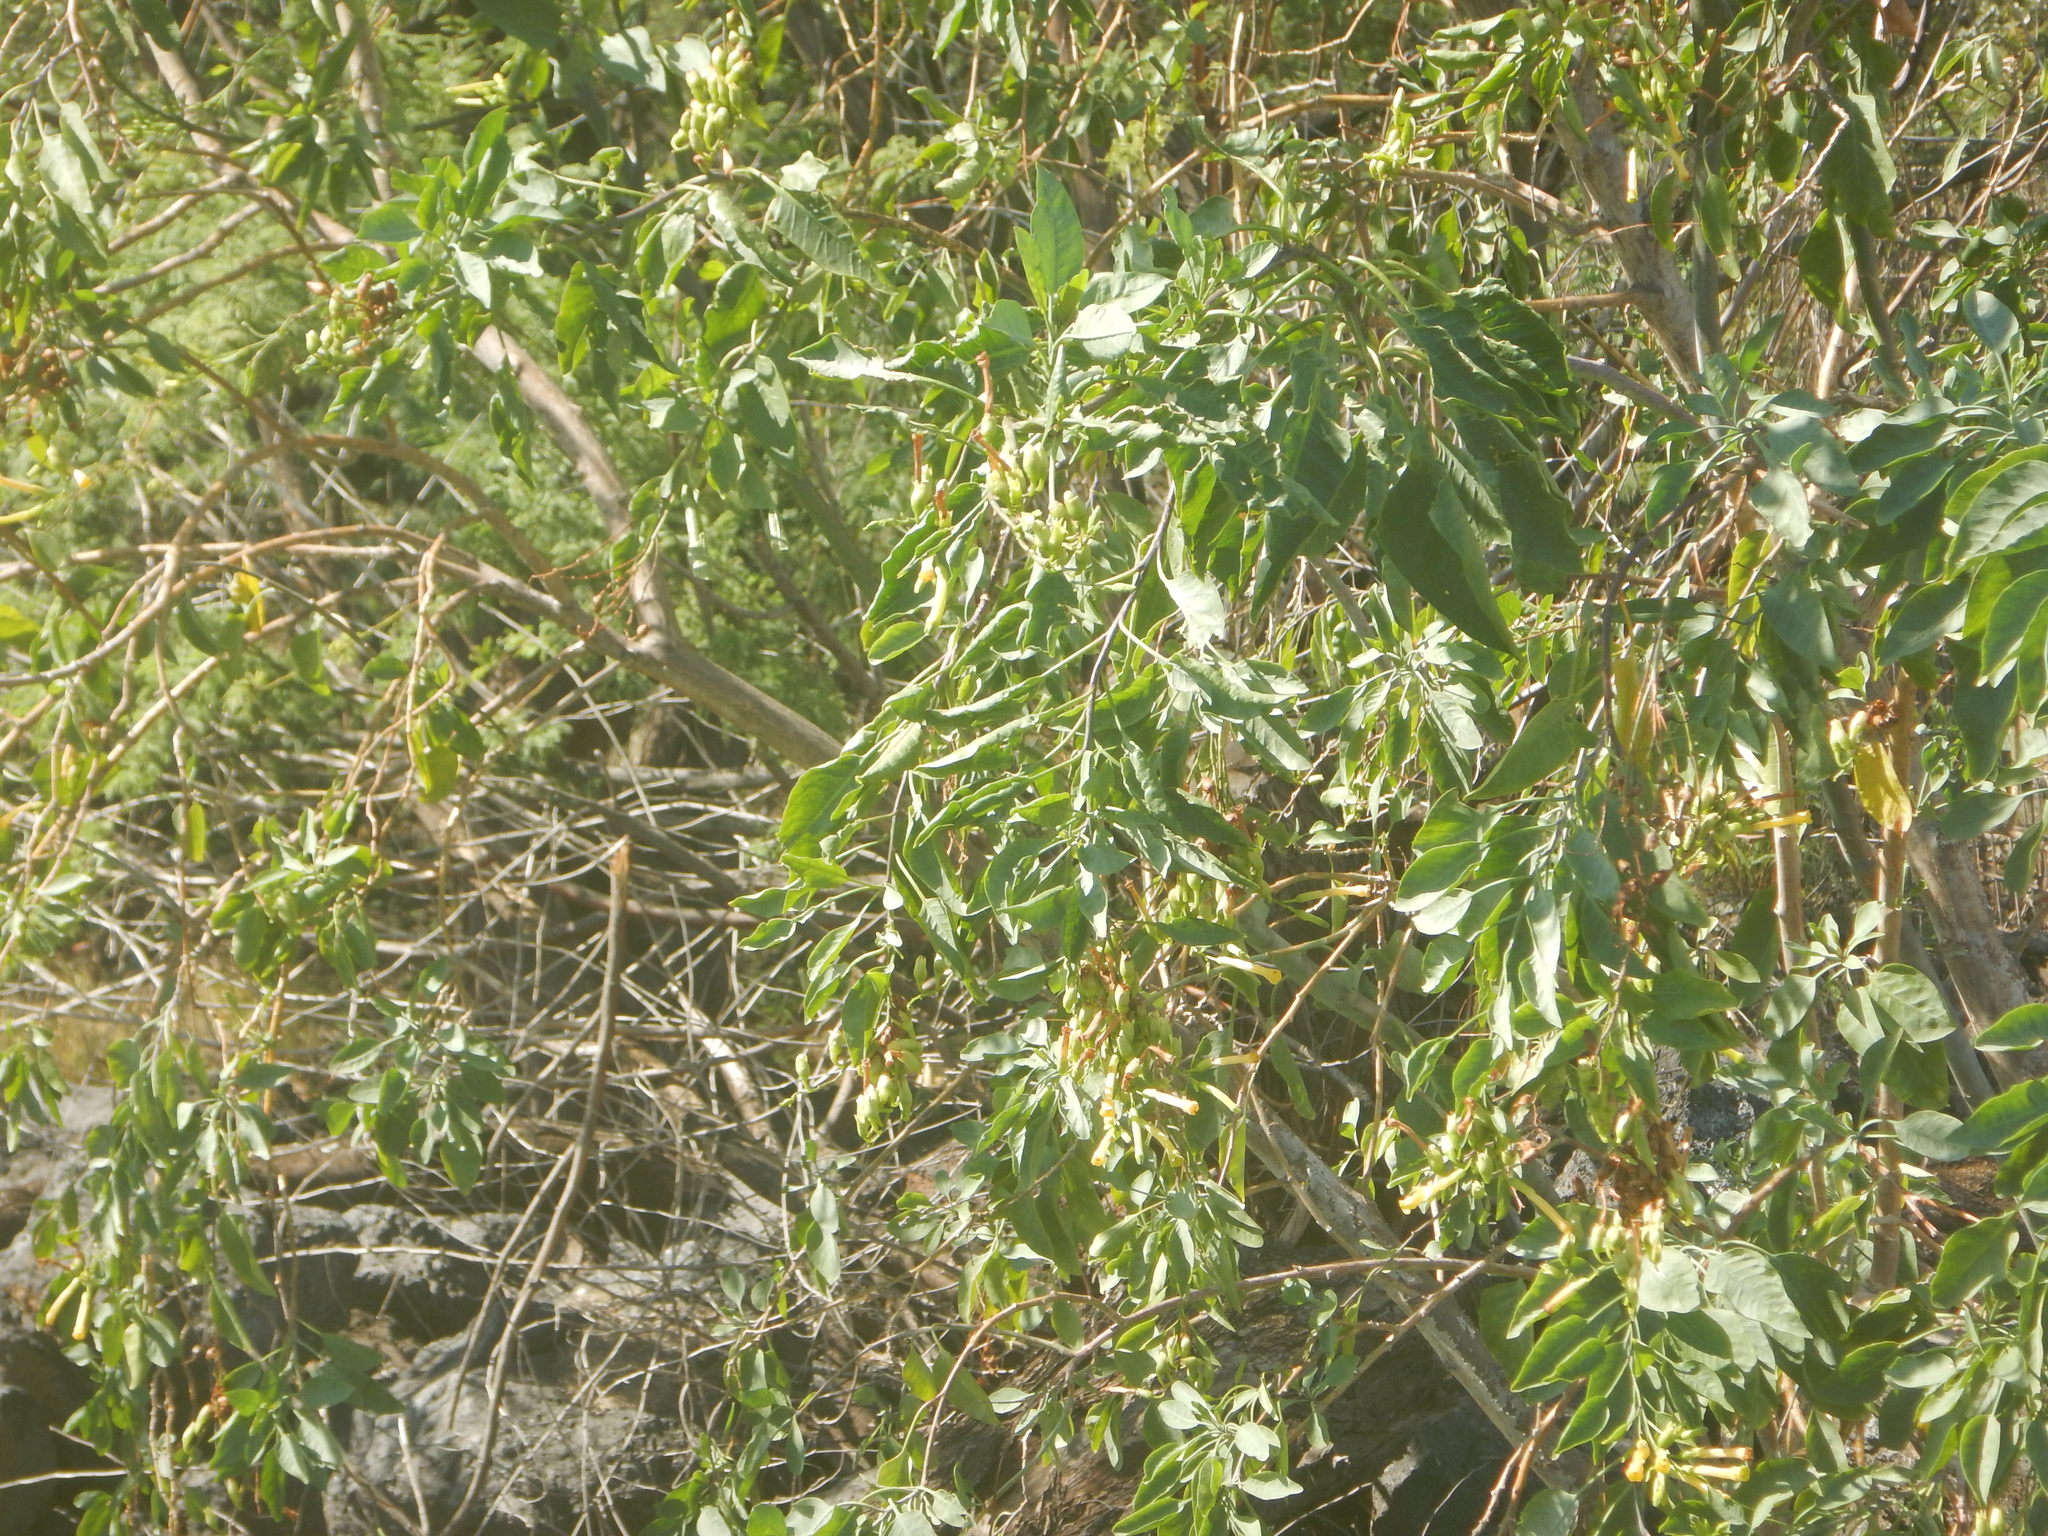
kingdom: Plantae
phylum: Tracheophyta
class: Magnoliopsida
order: Solanales
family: Solanaceae
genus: Nicotiana
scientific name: Nicotiana glauca
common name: Tree tobacco
